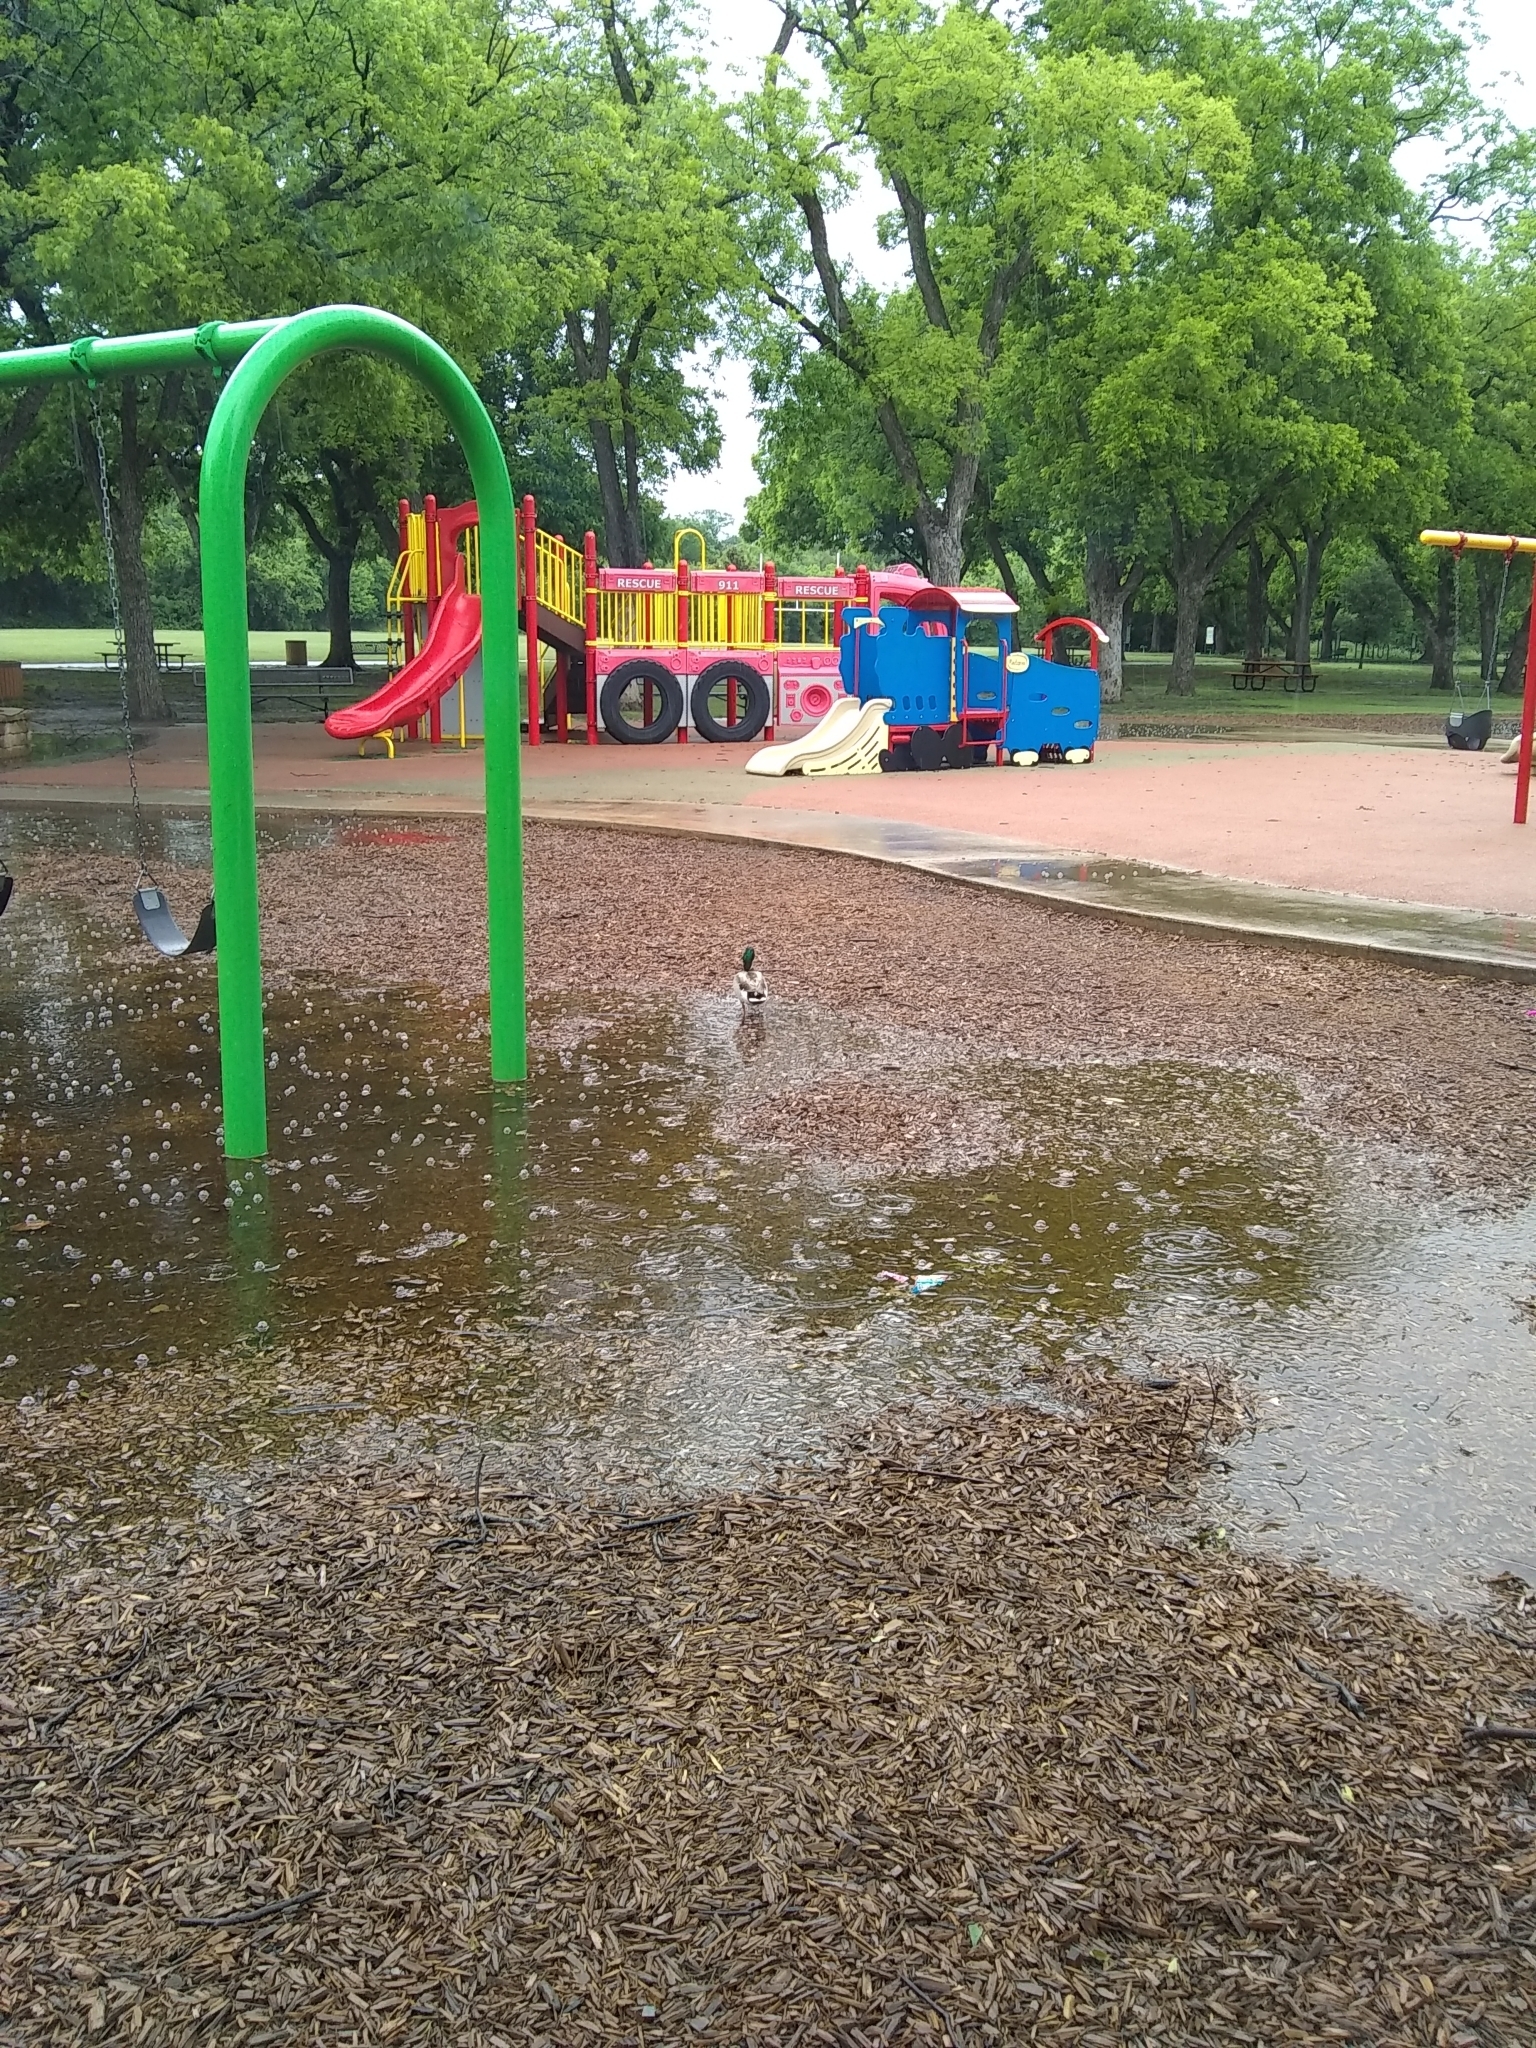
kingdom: Animalia
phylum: Chordata
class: Aves
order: Anseriformes
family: Anatidae
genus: Anas
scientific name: Anas platyrhynchos
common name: Mallard
